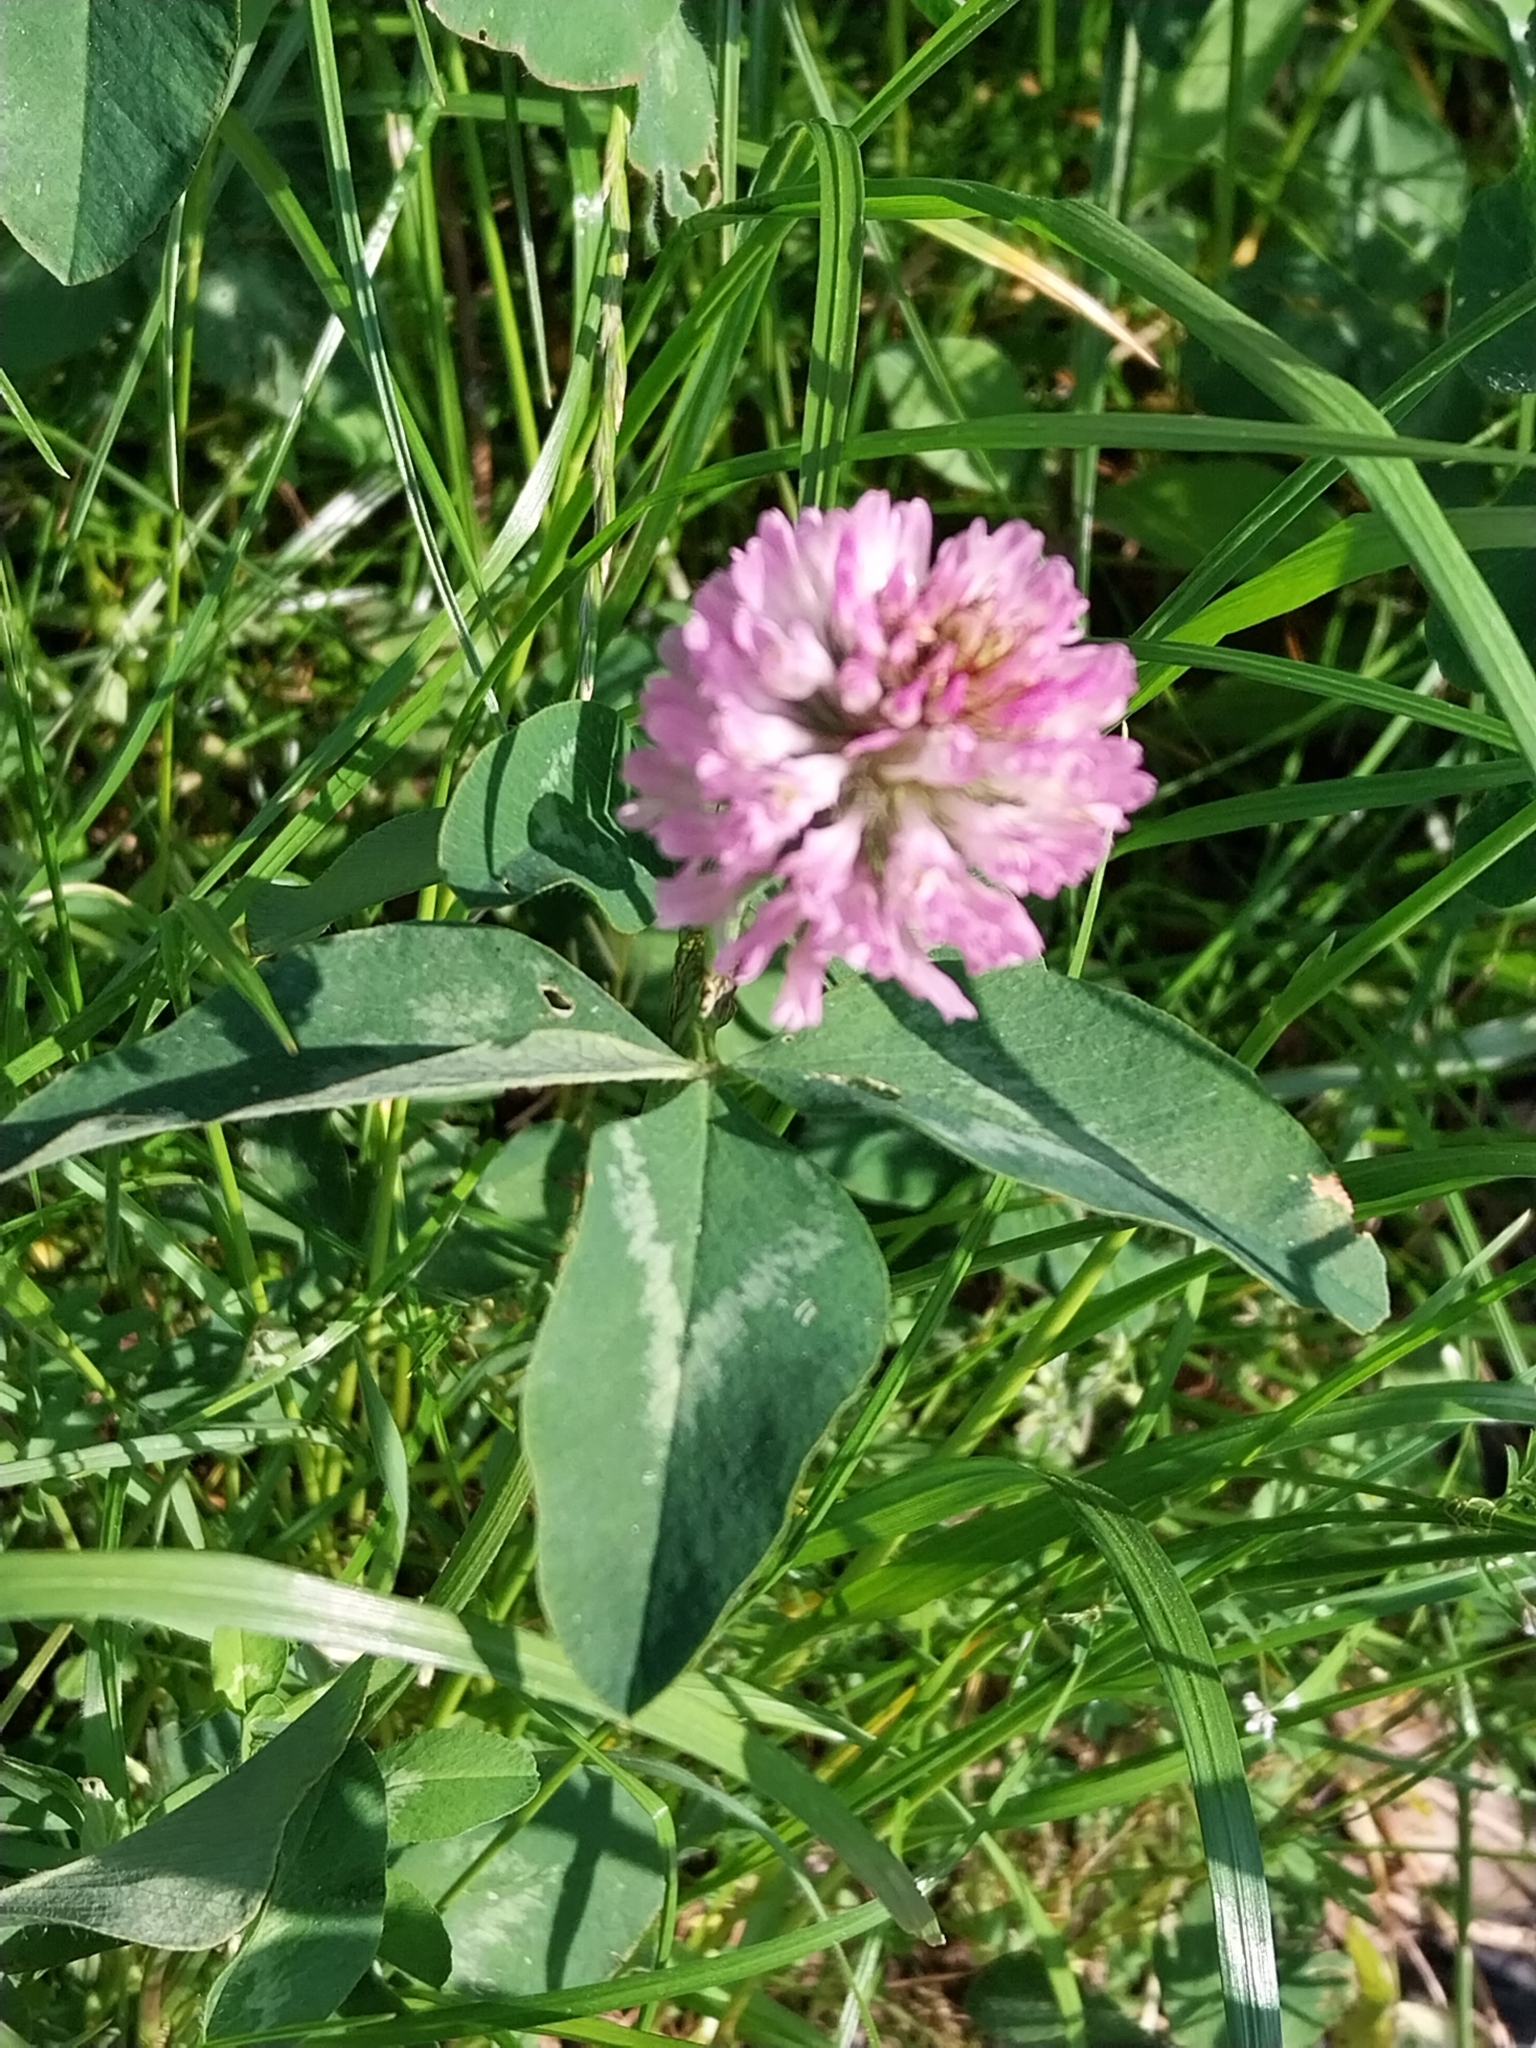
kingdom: Plantae
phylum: Tracheophyta
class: Magnoliopsida
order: Fabales
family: Fabaceae
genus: Trifolium
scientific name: Trifolium pratense
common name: Red clover
